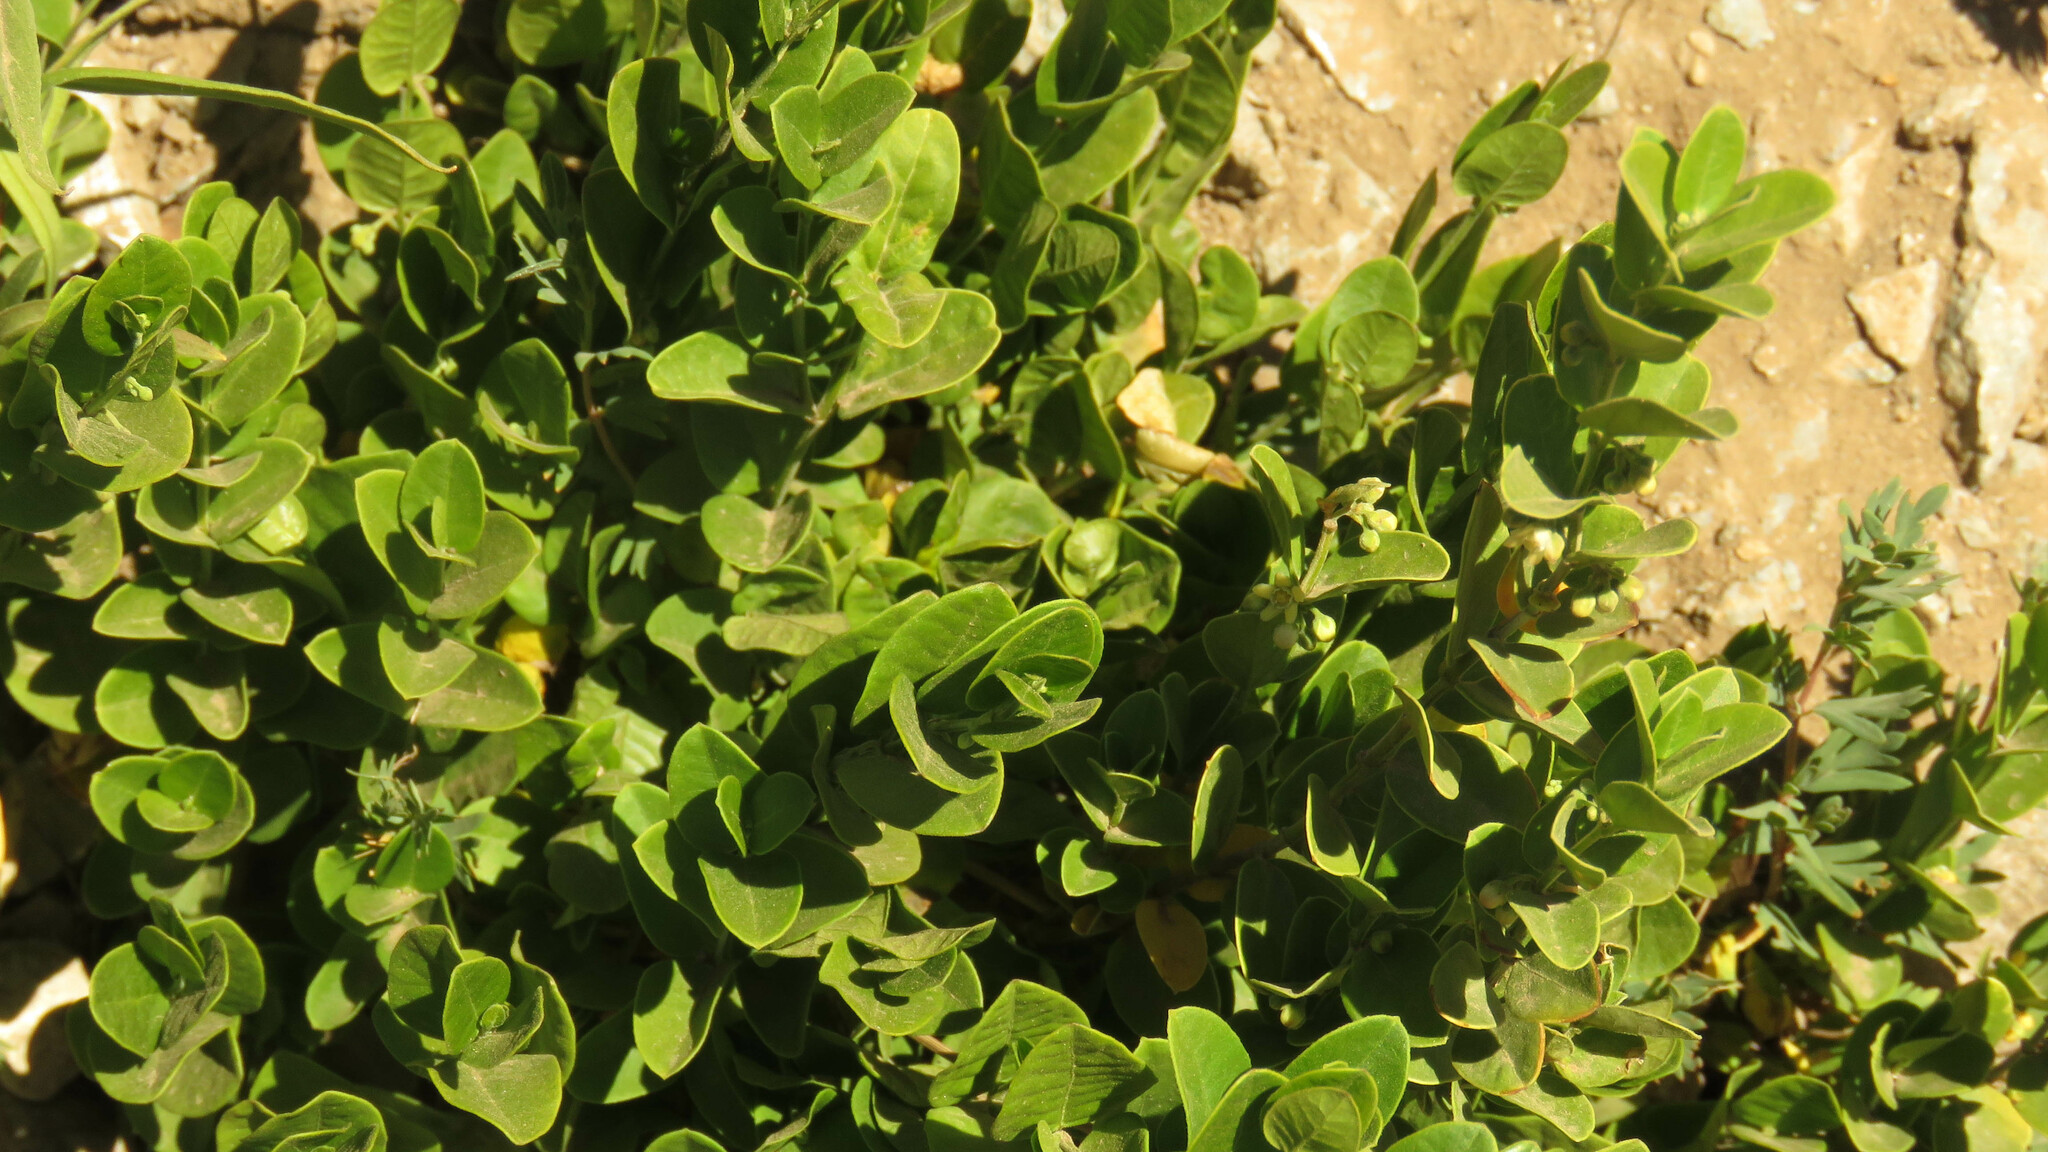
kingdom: Plantae
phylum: Tracheophyta
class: Magnoliopsida
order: Gentianales
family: Apocynaceae
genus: Diplolepis
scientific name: Diplolepis nummulariifolia
